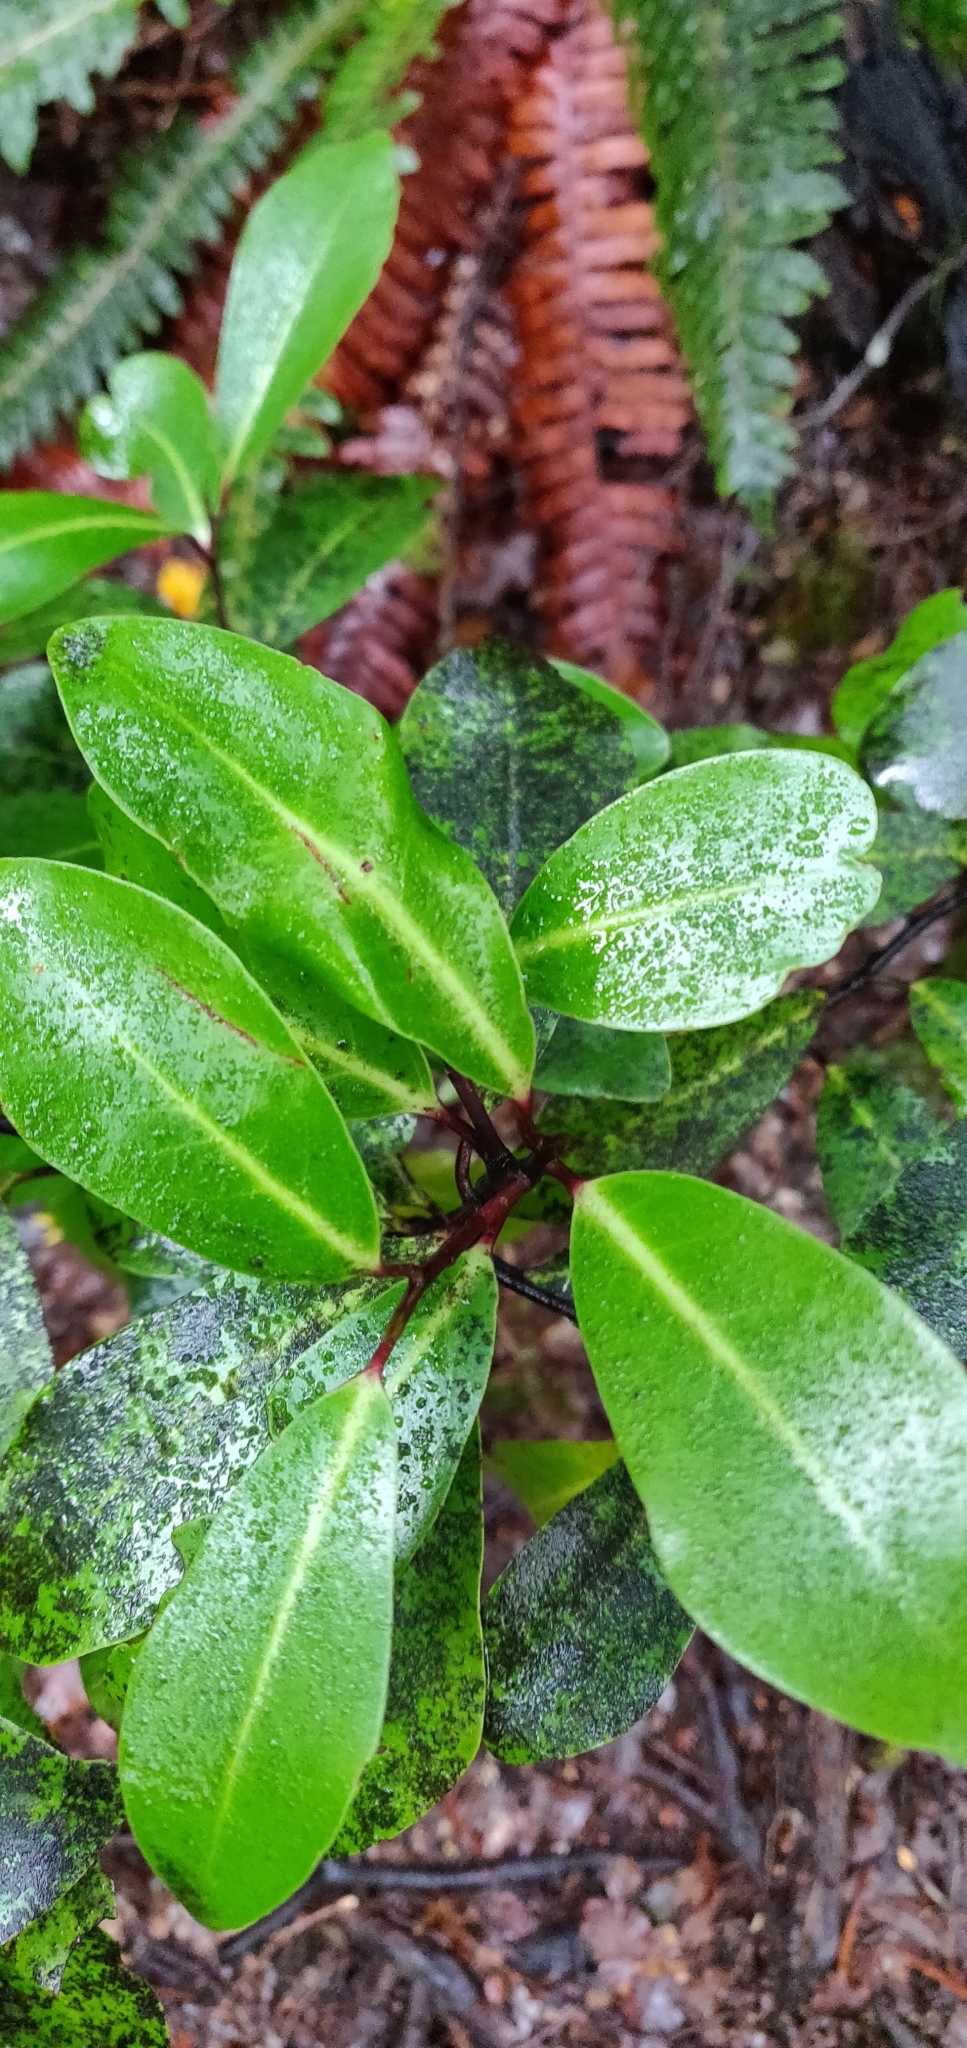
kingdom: Plantae
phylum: Tracheophyta
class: Magnoliopsida
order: Canellales
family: Winteraceae
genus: Pseudowintera
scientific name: Pseudowintera axillaris
